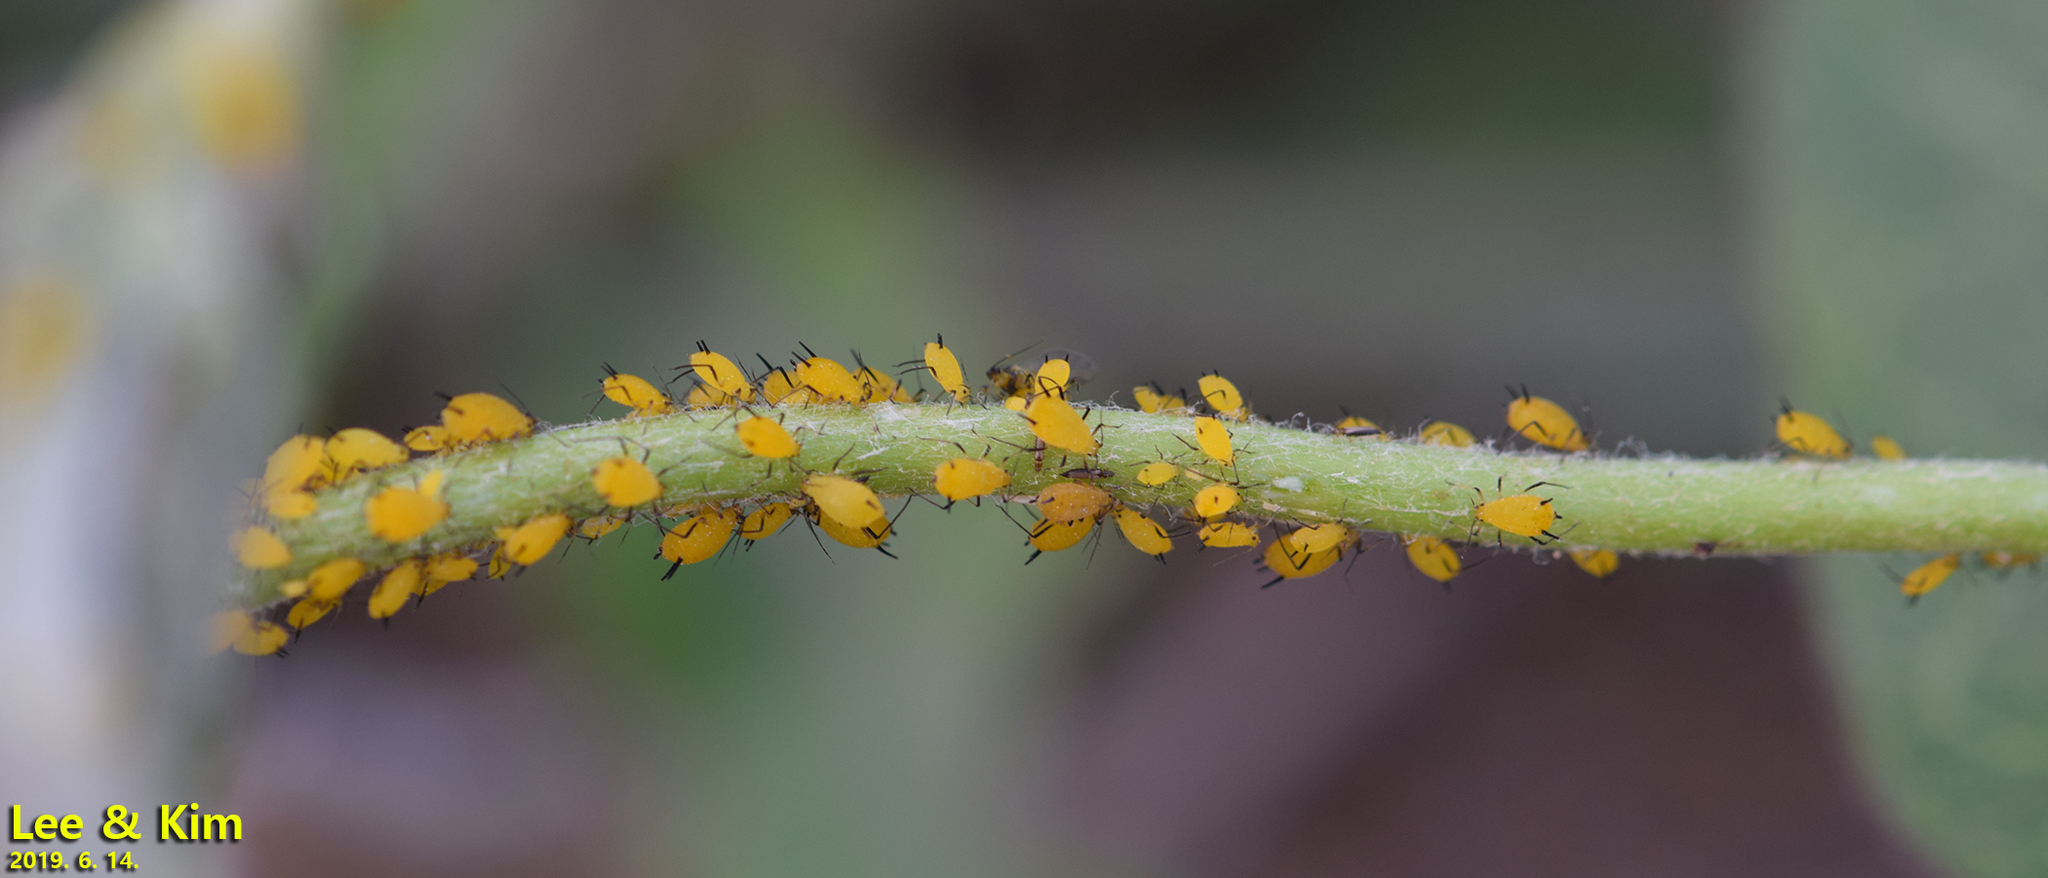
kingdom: Animalia
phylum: Arthropoda
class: Insecta
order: Hemiptera
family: Aphididae
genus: Aphis
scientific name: Aphis nerii
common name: Oleander aphid
